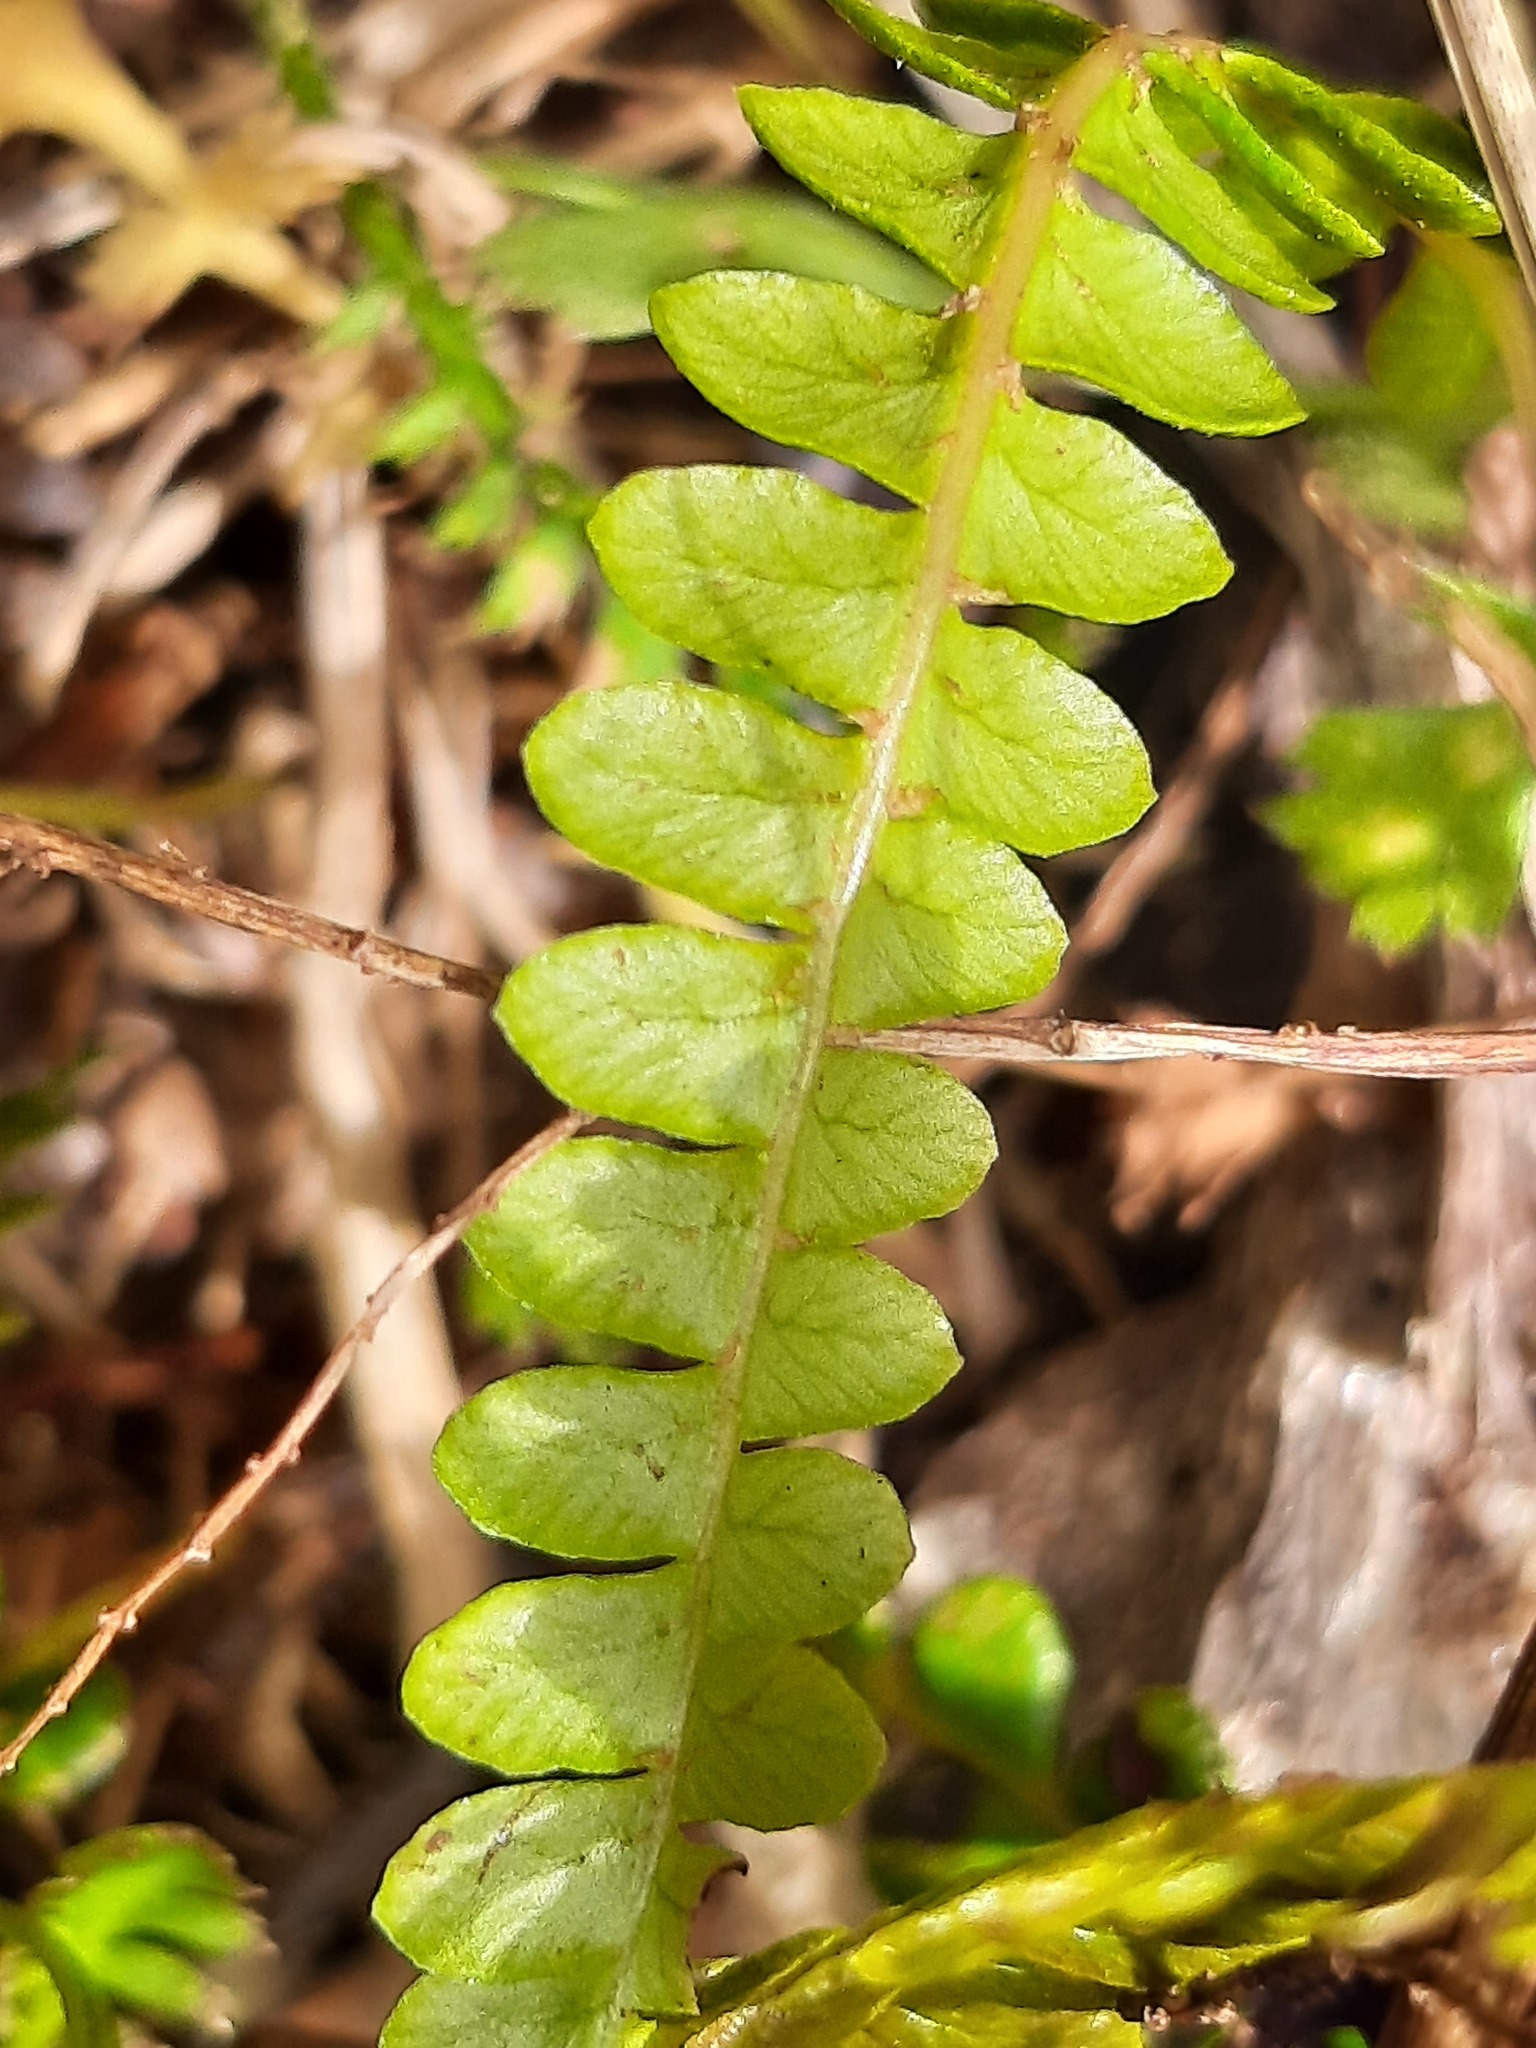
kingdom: Plantae
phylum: Tracheophyta
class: Polypodiopsida
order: Polypodiales
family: Blechnaceae
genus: Austroblechnum
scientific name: Austroblechnum penna-marina
